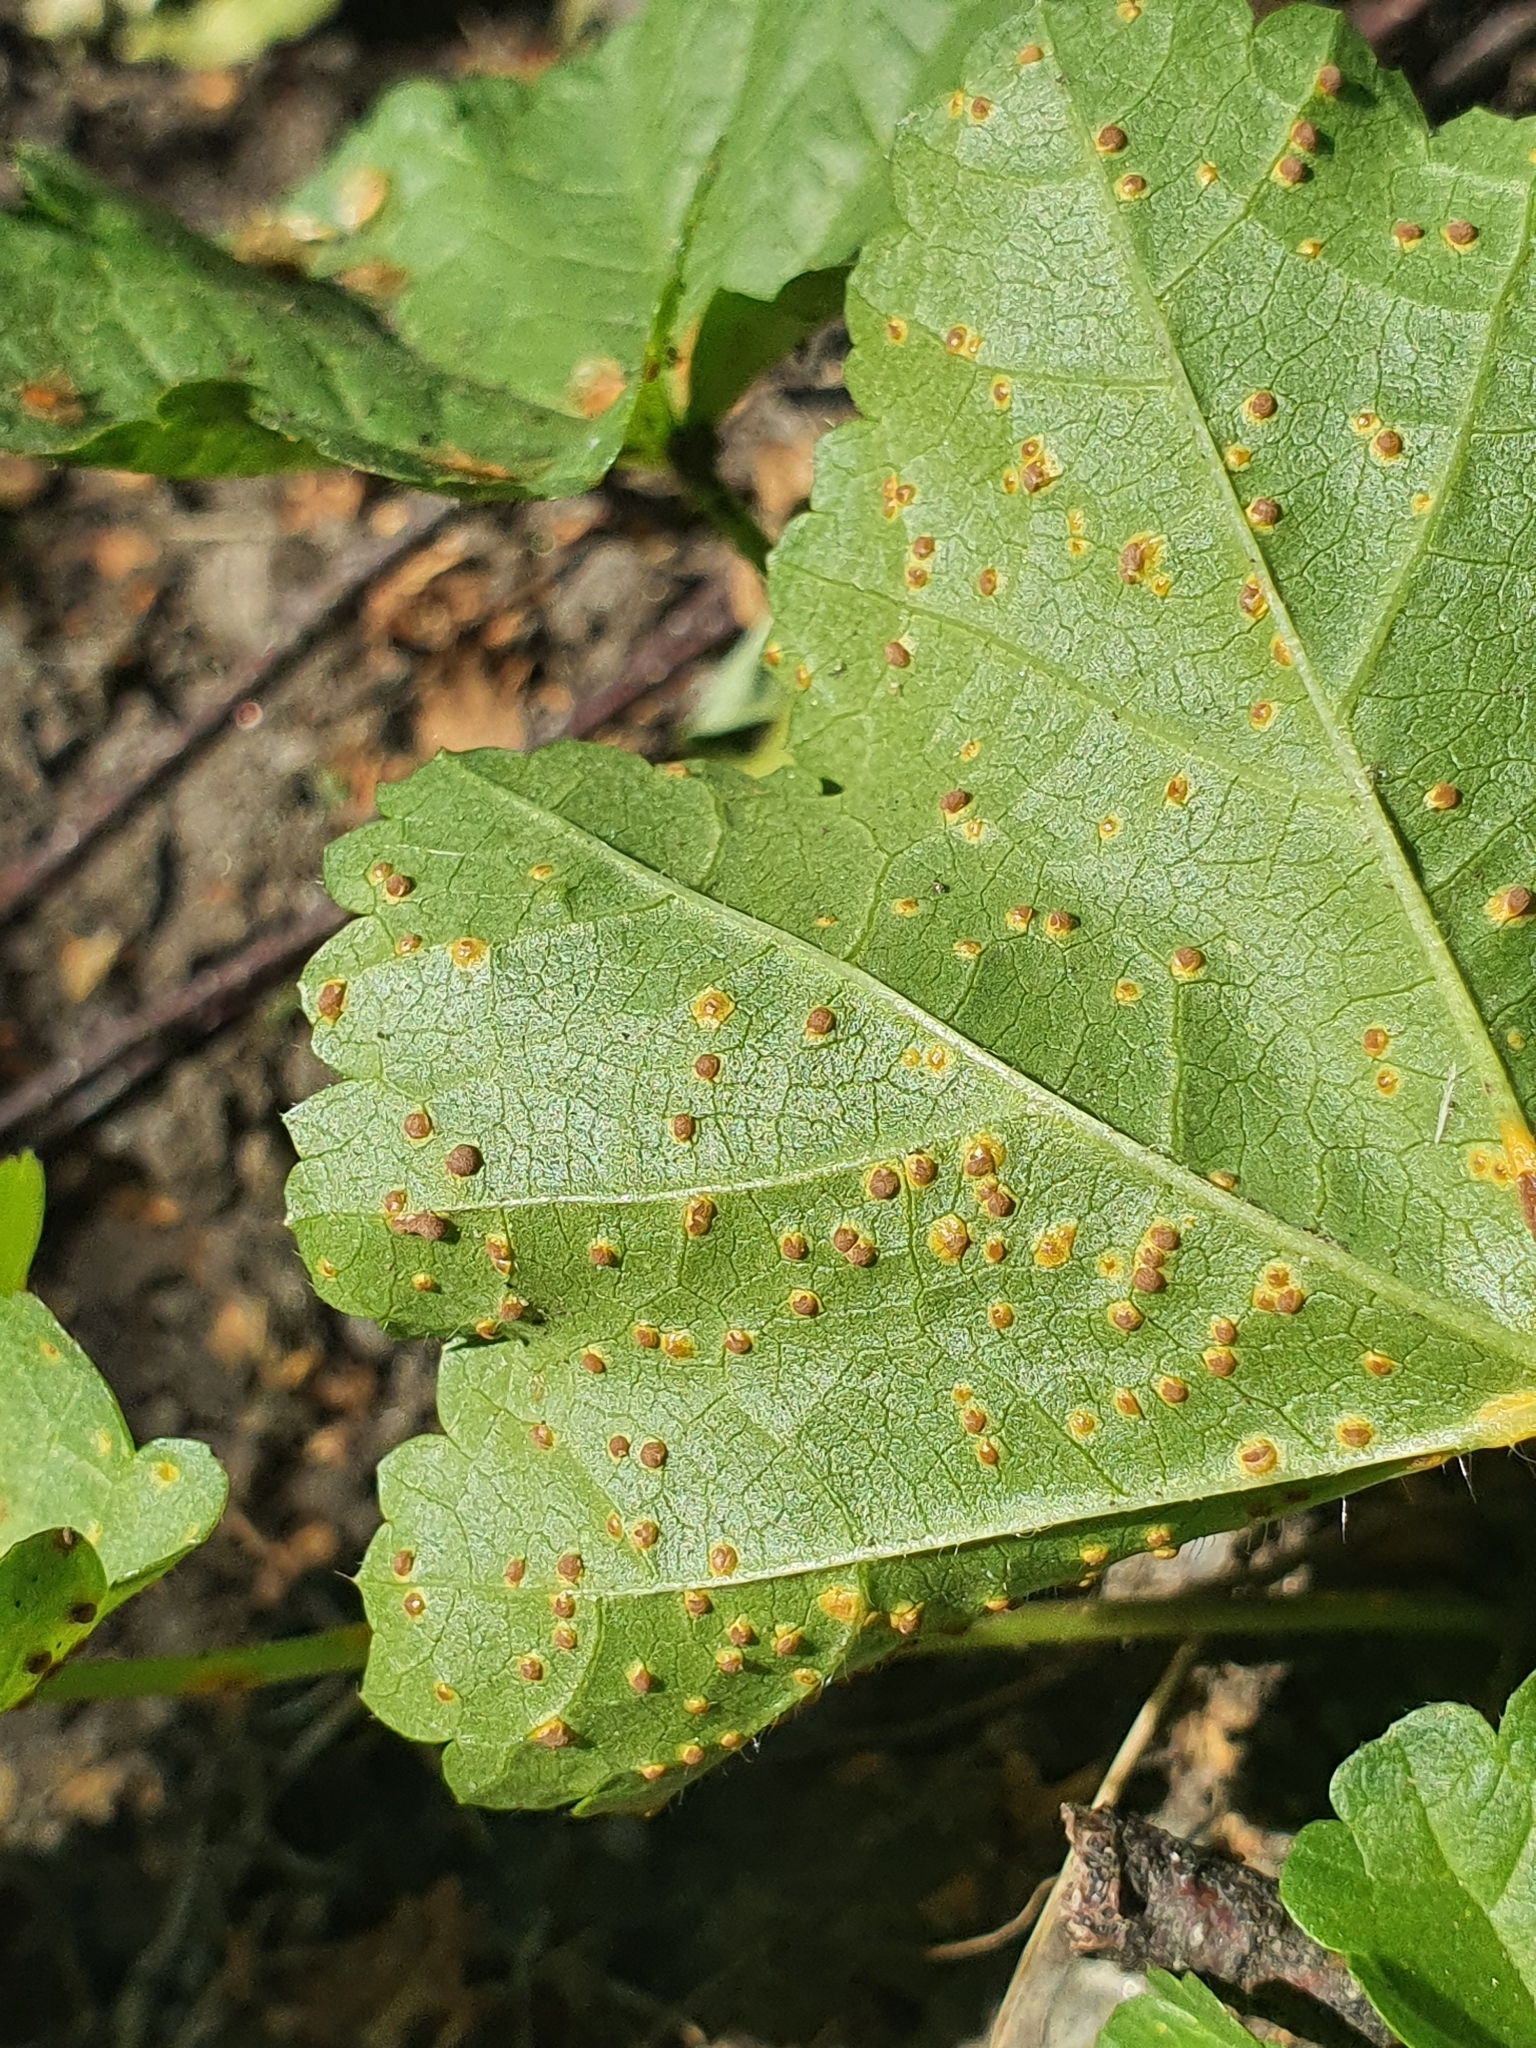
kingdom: Fungi
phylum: Basidiomycota
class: Pucciniomycetes
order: Pucciniales
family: Pucciniaceae
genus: Puccinia
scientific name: Puccinia malvacearum
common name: Hollyhock rust
